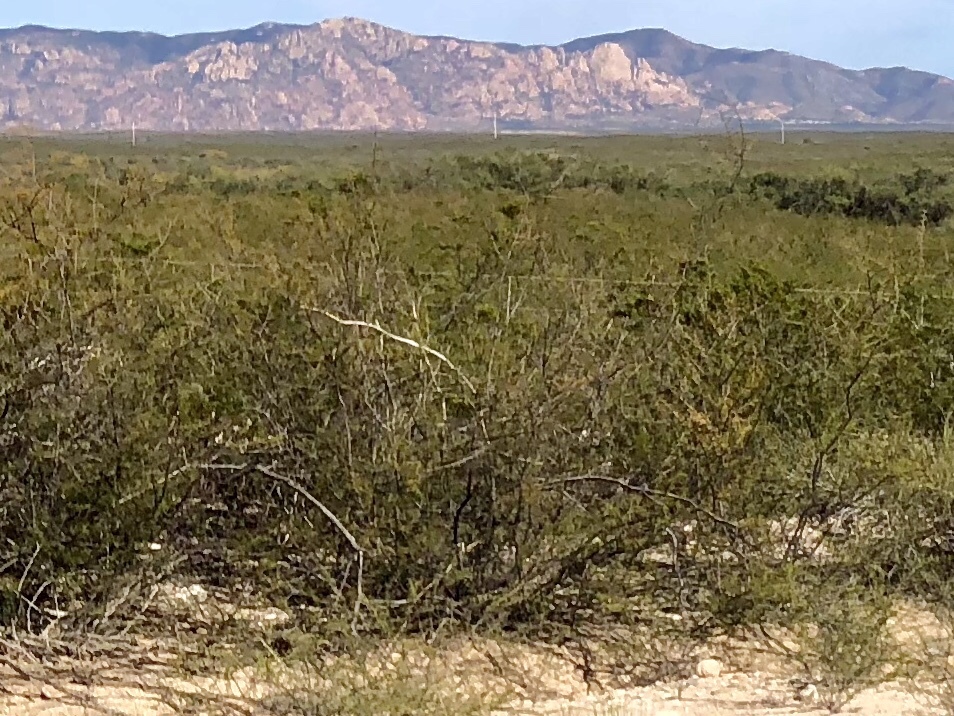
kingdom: Plantae
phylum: Tracheophyta
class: Magnoliopsida
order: Zygophyllales
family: Zygophyllaceae
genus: Larrea
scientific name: Larrea tridentata
